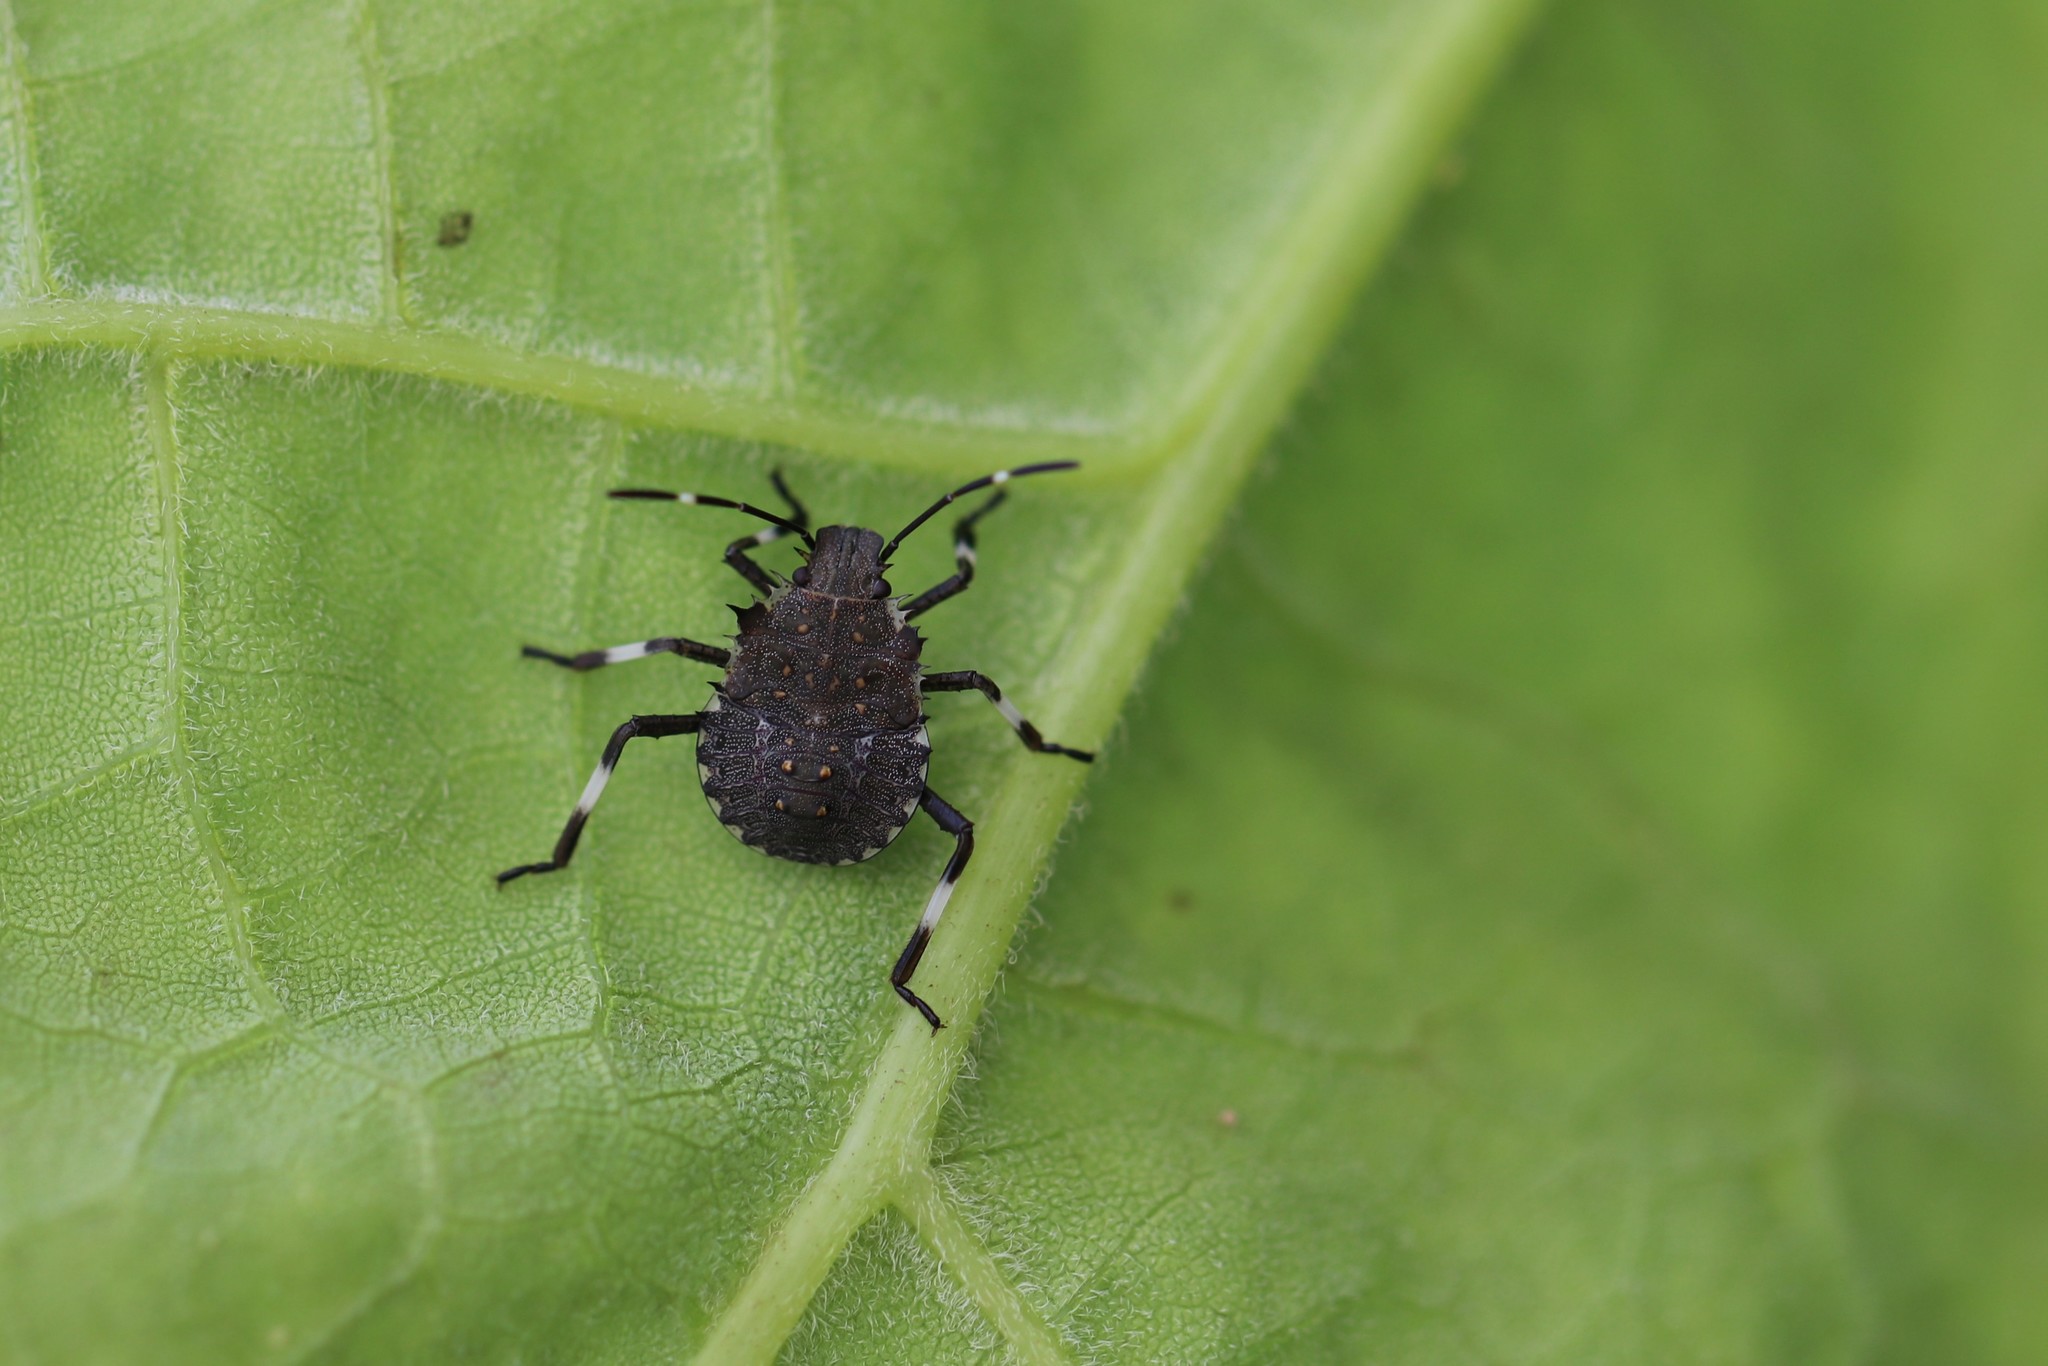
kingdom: Animalia
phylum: Arthropoda
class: Insecta
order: Hemiptera
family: Pentatomidae
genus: Halyomorpha
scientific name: Halyomorpha halys
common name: Brown marmorated stink bug
